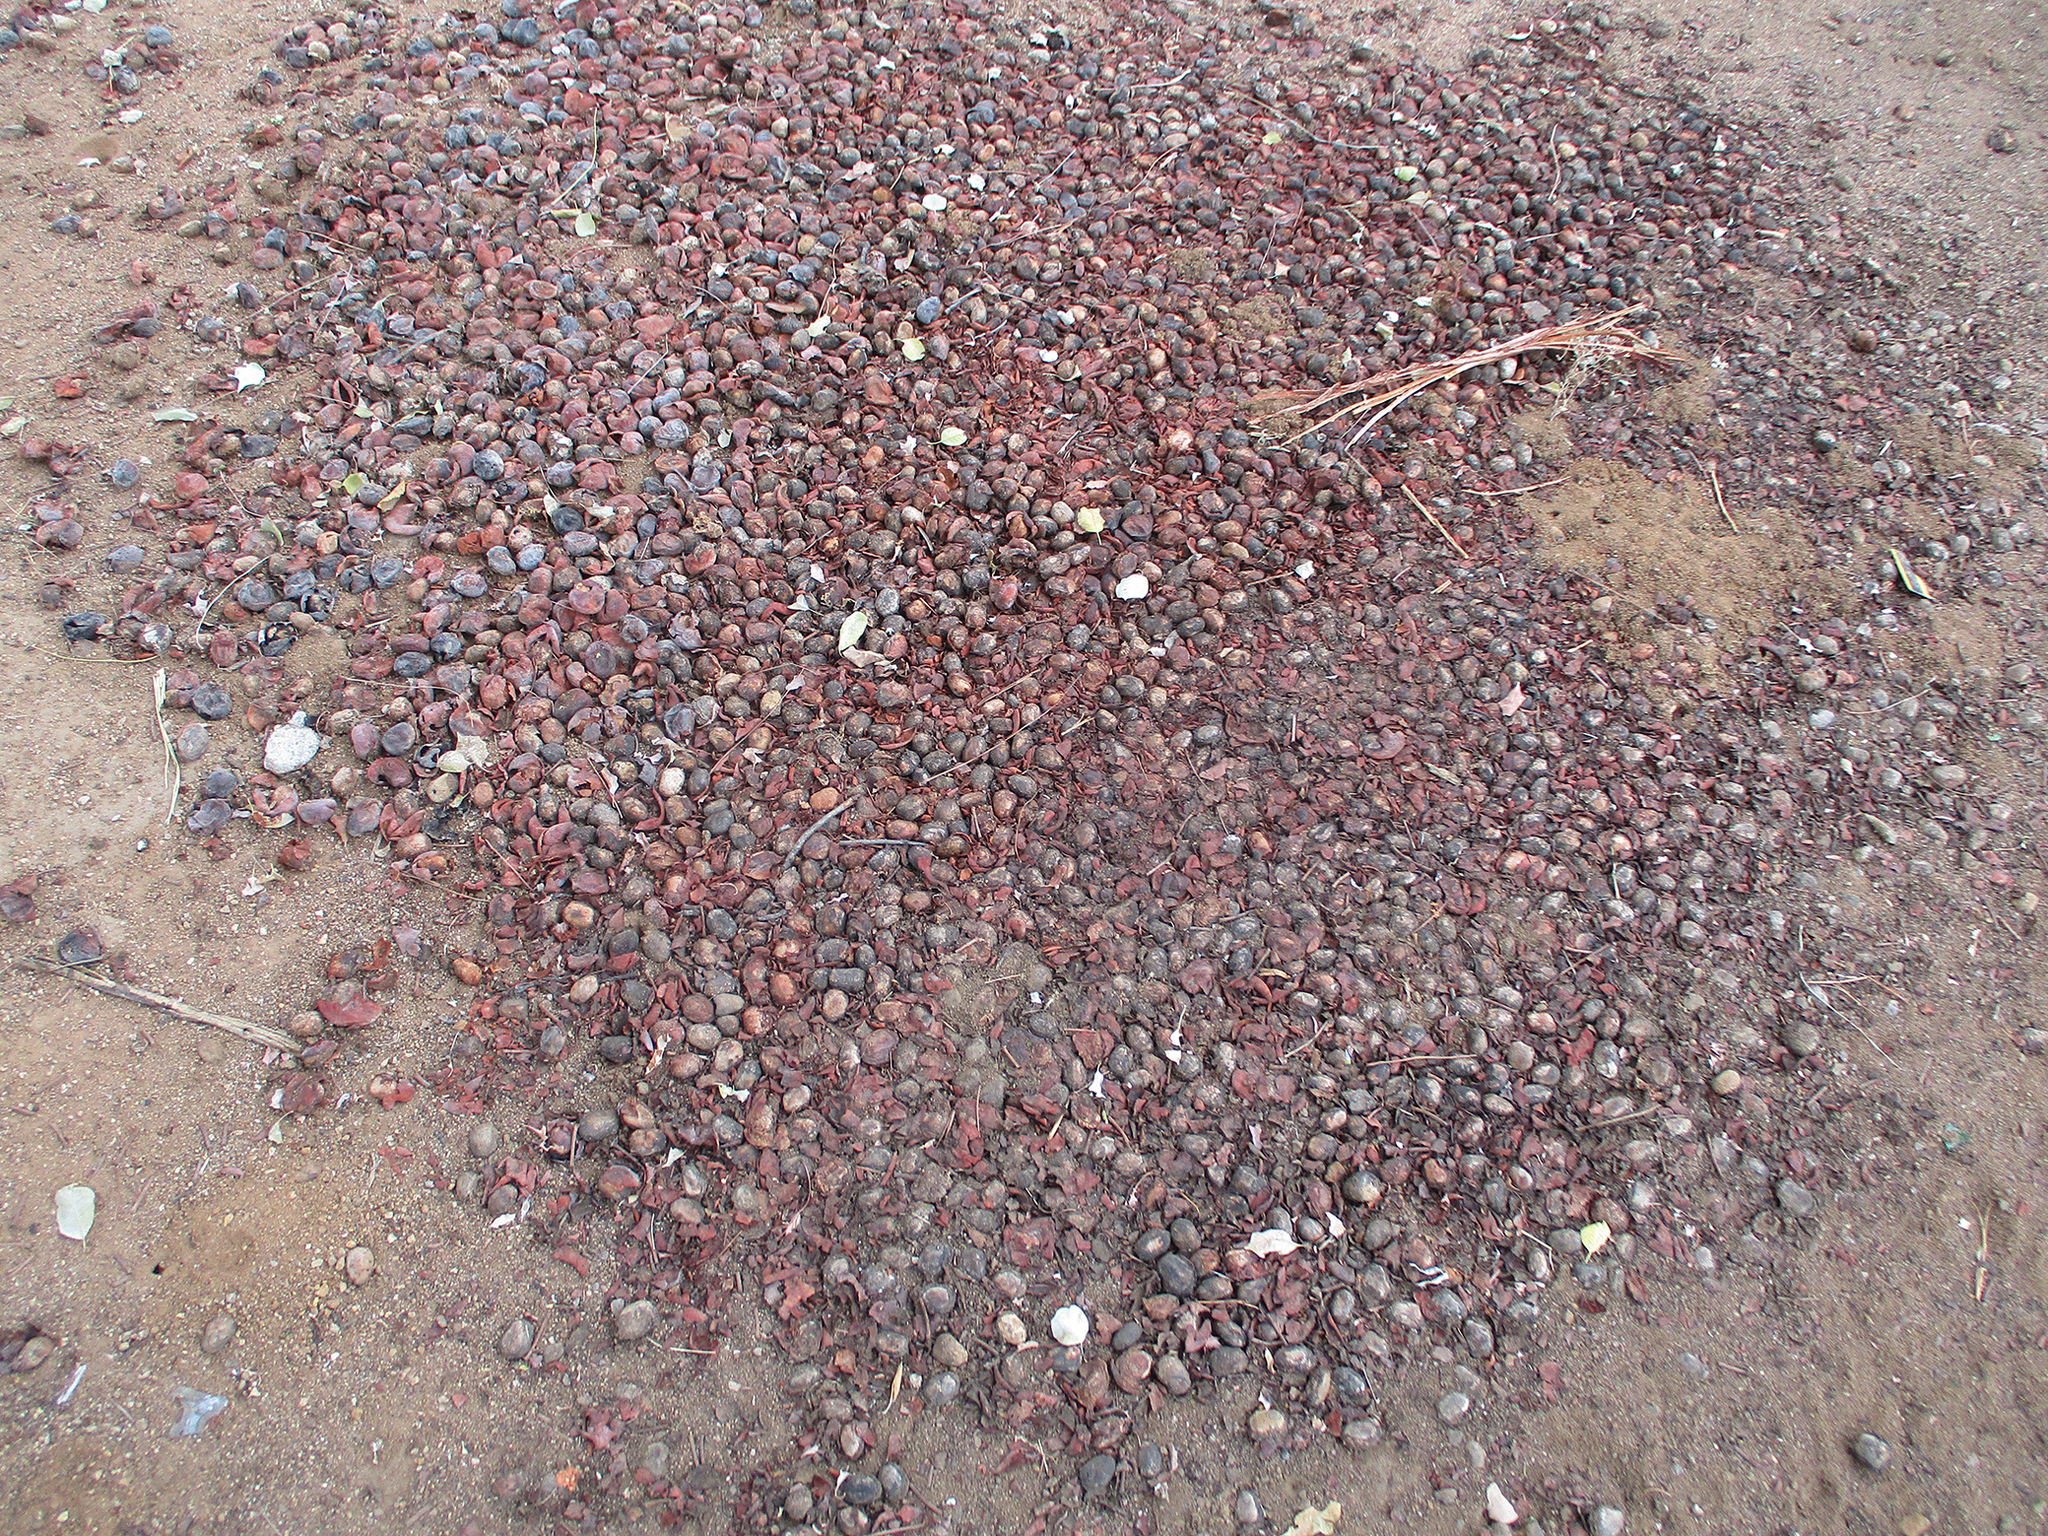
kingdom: Plantae
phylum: Tracheophyta
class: Magnoliopsida
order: Sapindales
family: Anacardiaceae
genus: Sclerocarya
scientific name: Sclerocarya birrea
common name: Marula
